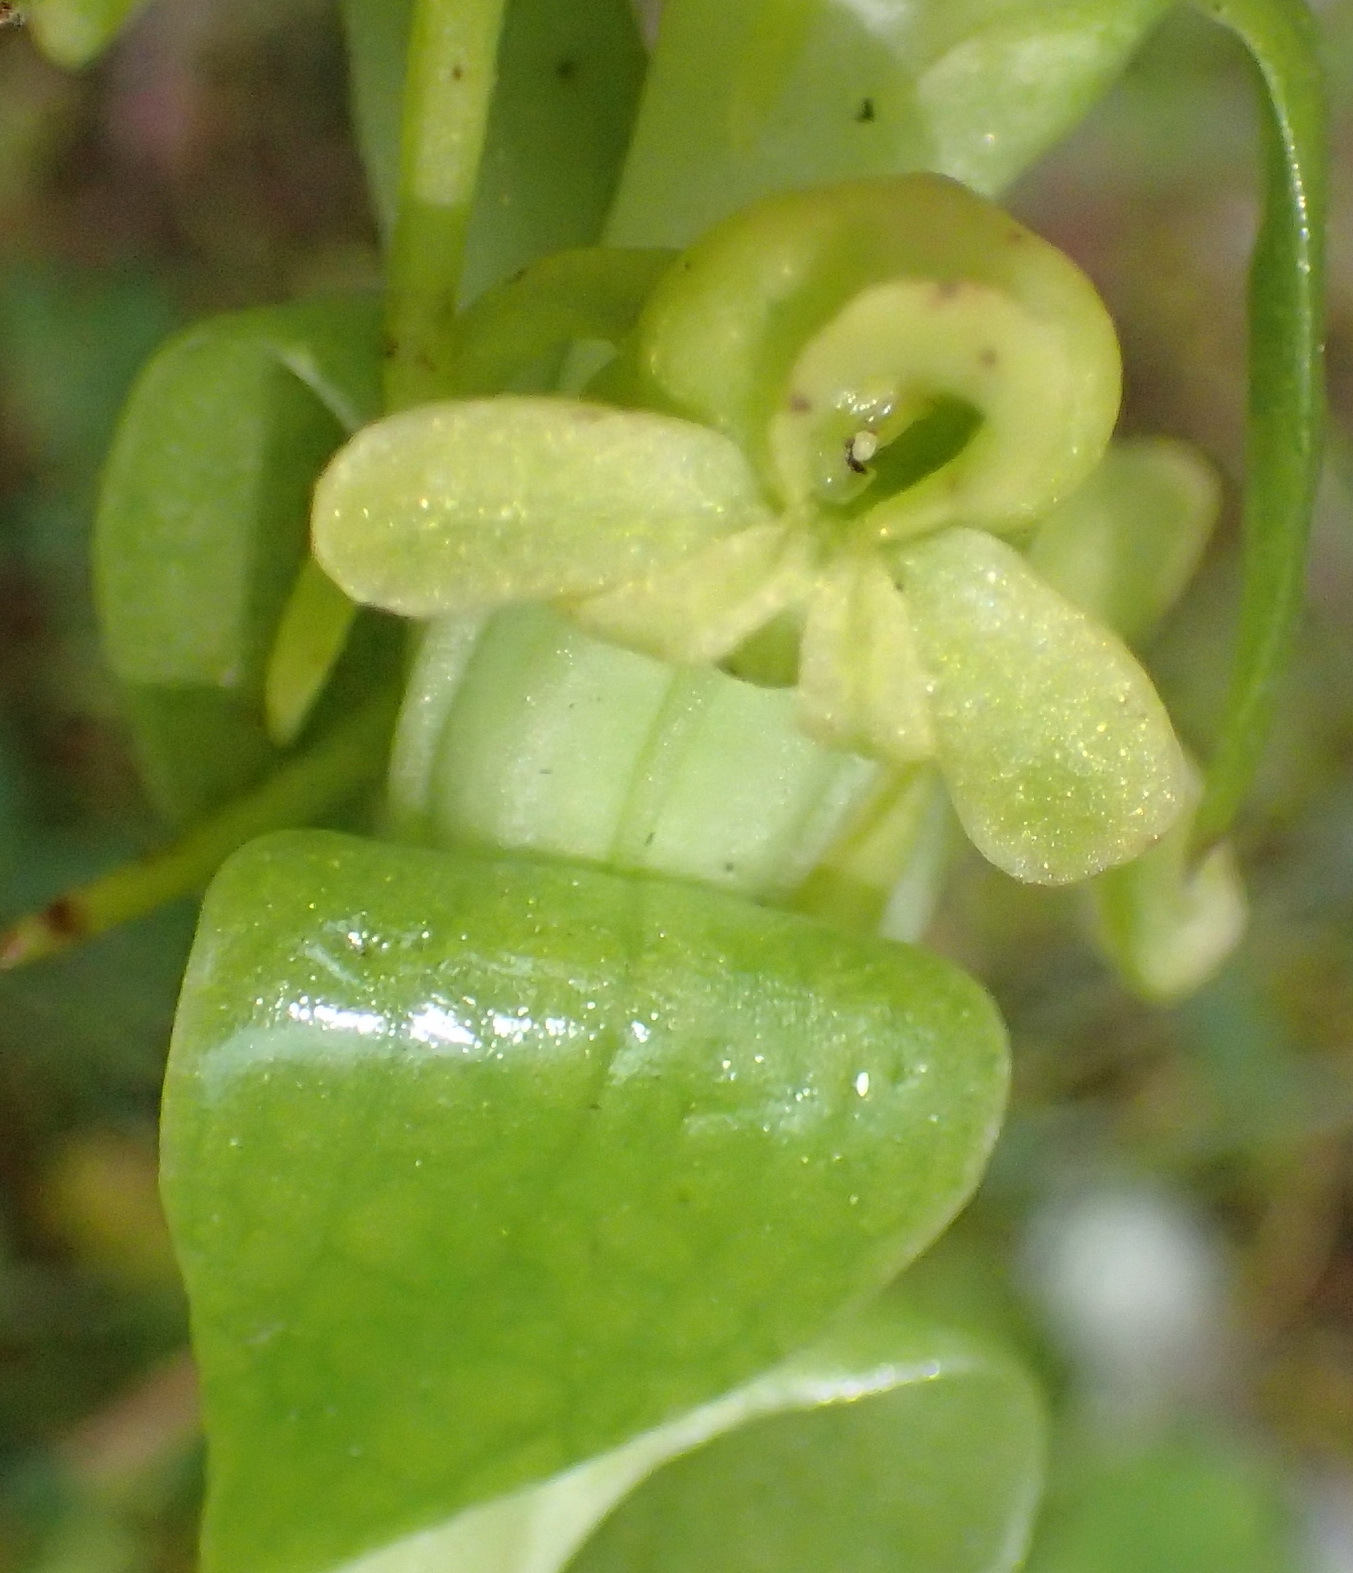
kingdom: Plantae
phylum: Tracheophyta
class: Liliopsida
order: Asparagales
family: Orchidaceae
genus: Satyrium
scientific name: Satyrium odorum
